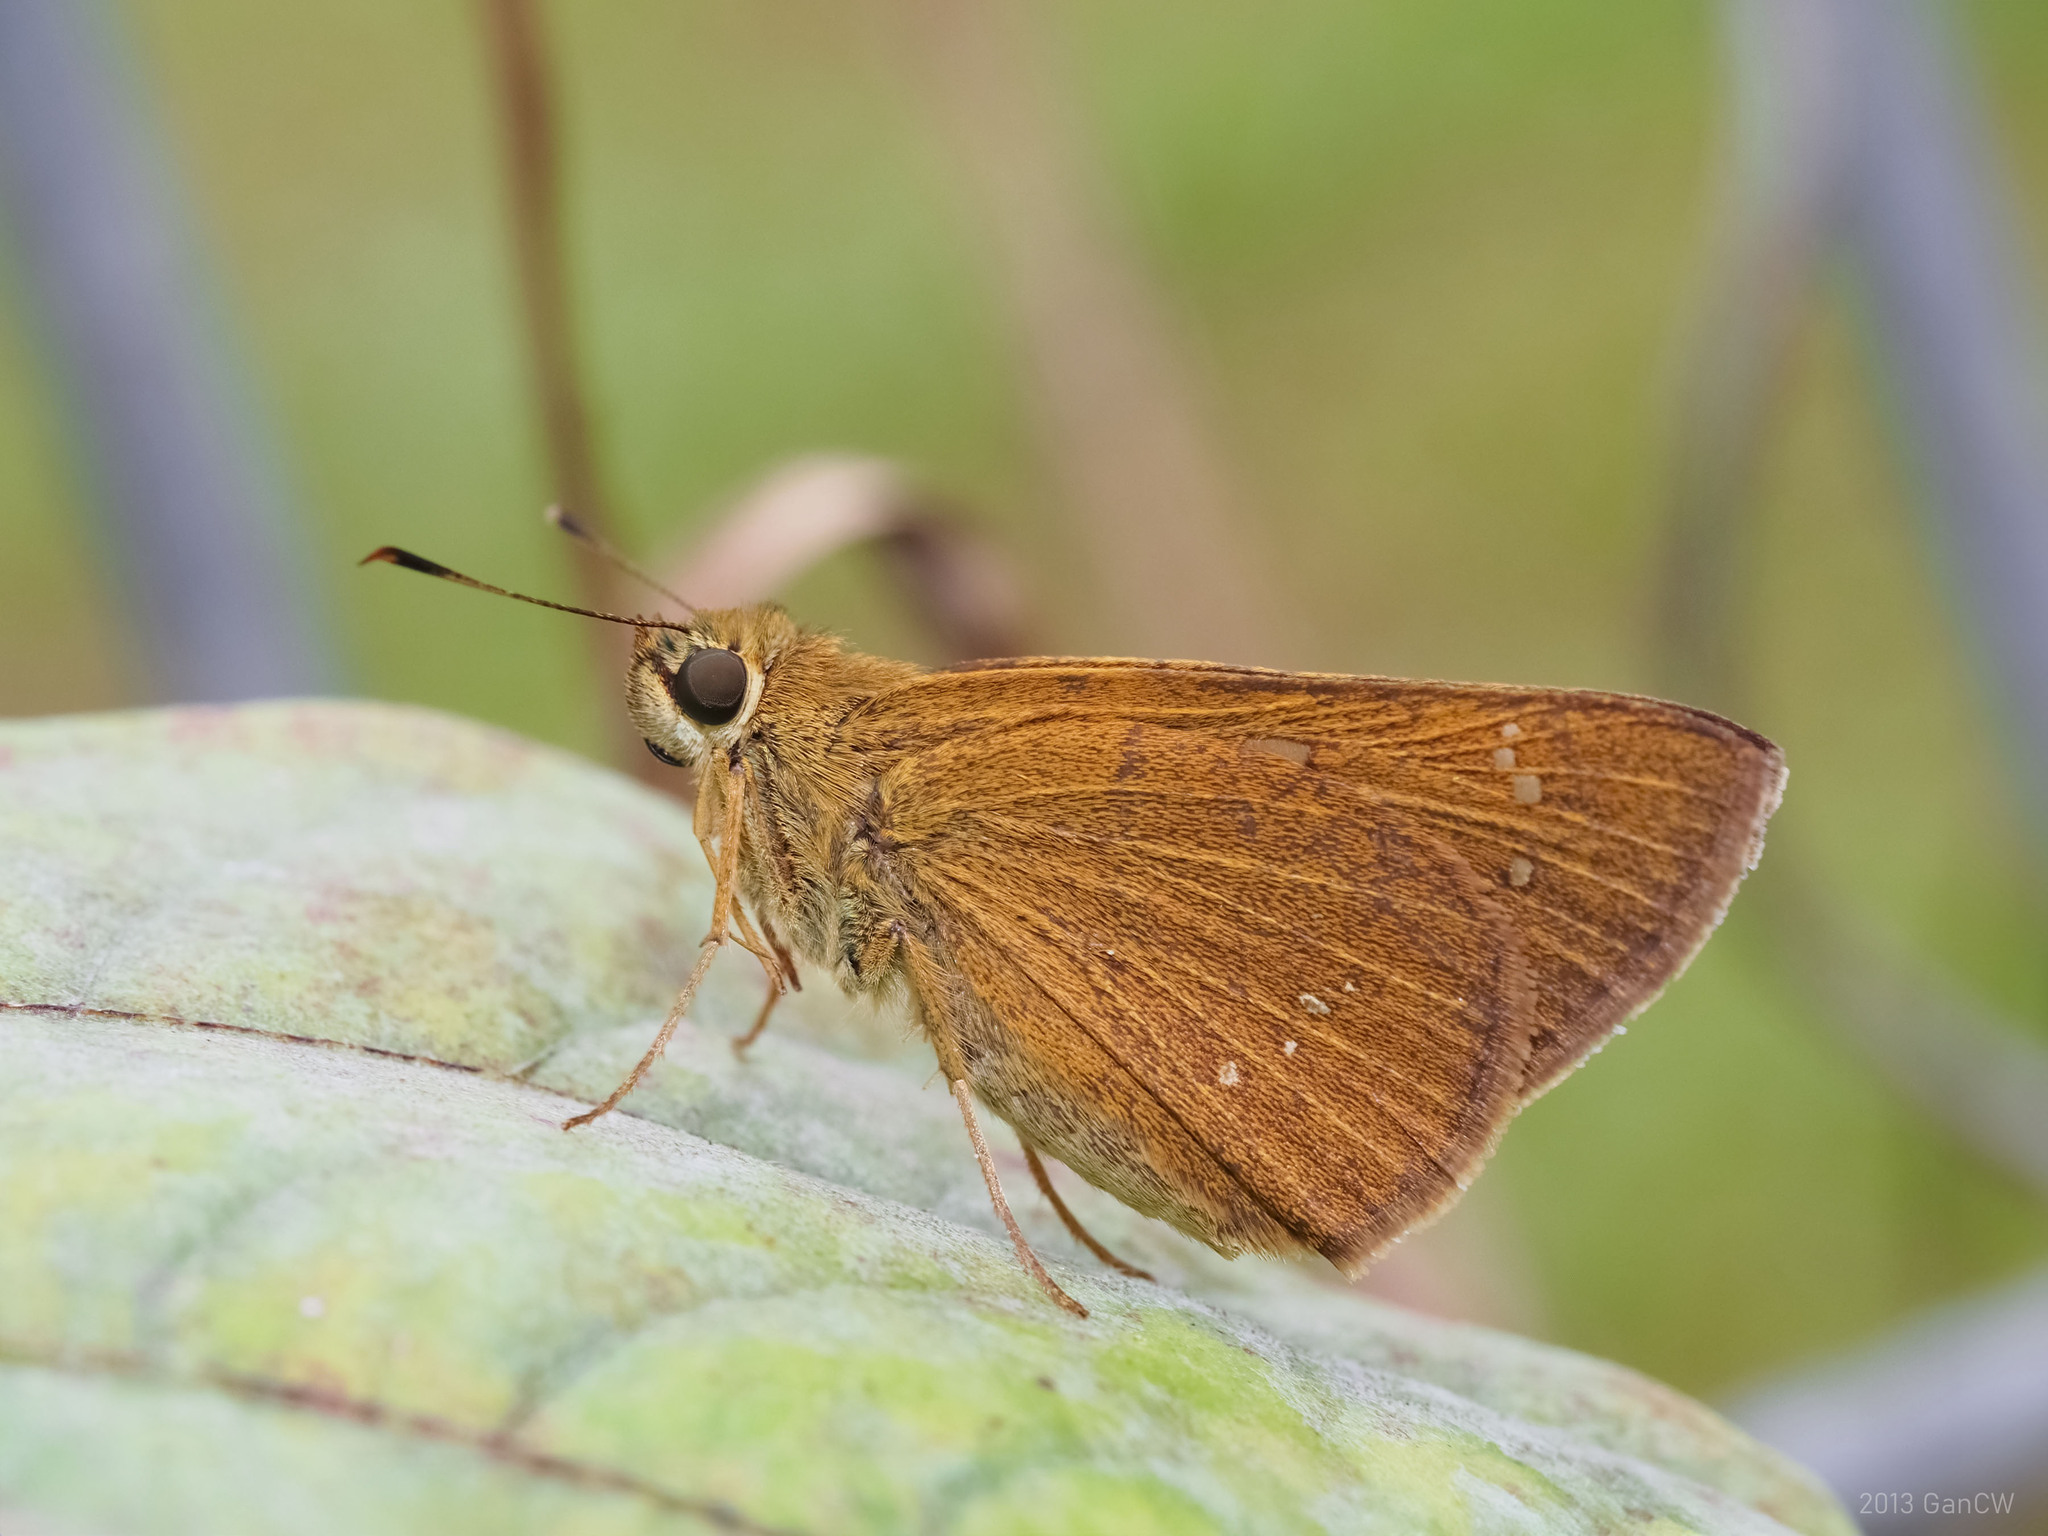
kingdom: Animalia
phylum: Arthropoda
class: Insecta
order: Lepidoptera
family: Hesperiidae
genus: Polytremis
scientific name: Polytremis lubricans
